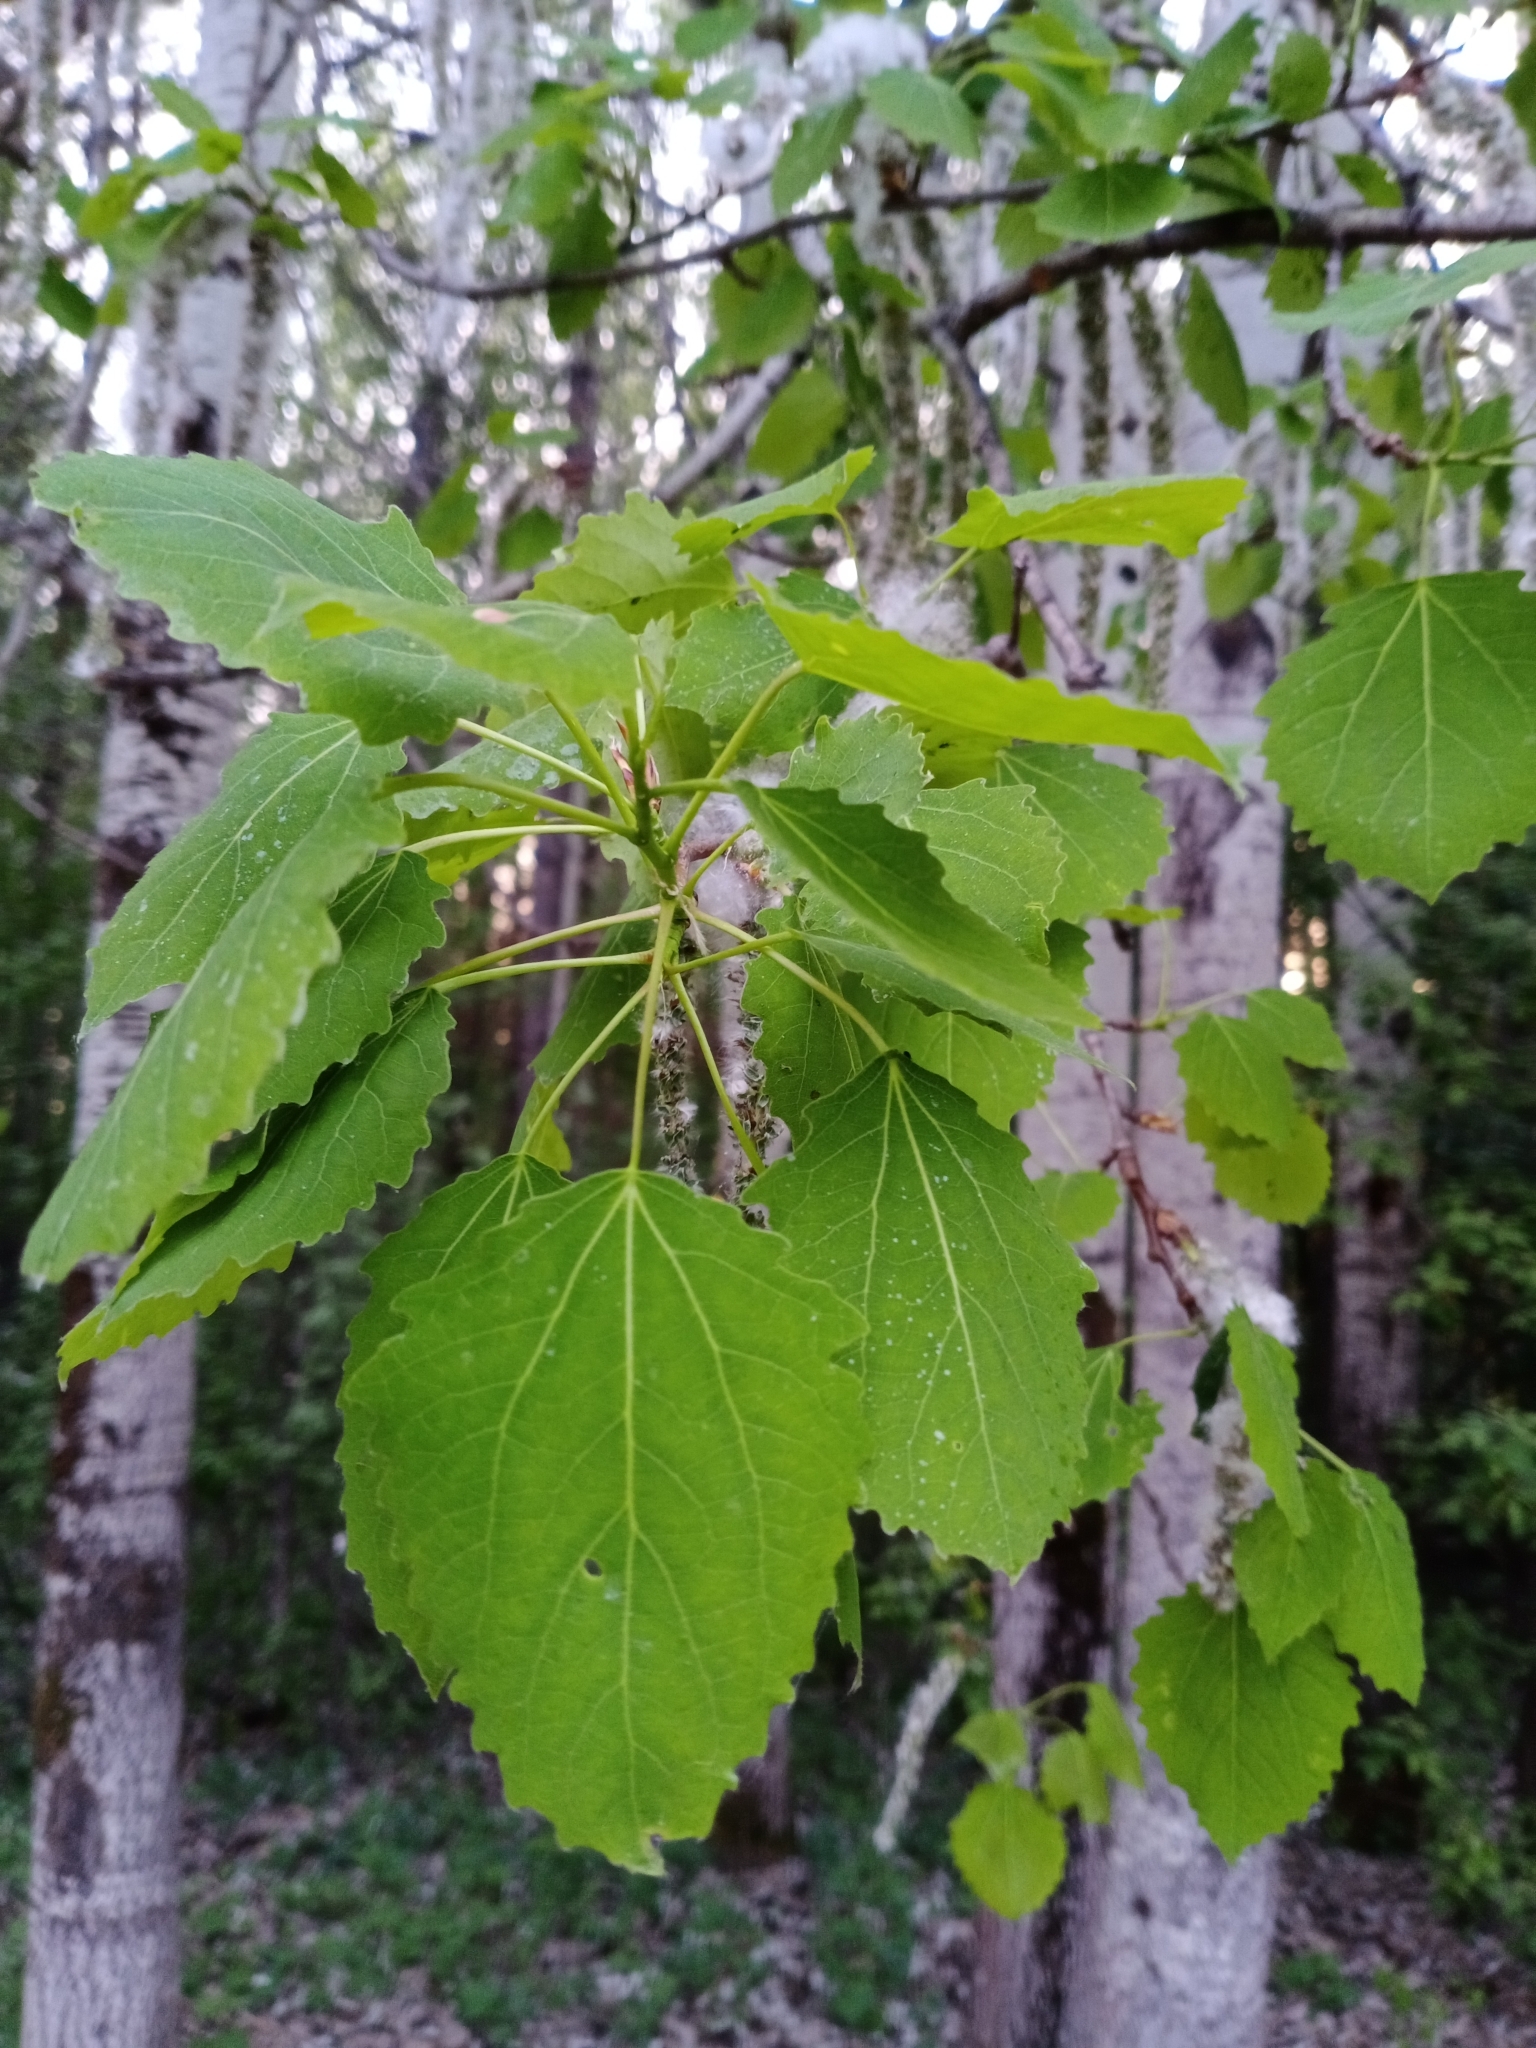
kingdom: Plantae
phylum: Tracheophyta
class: Magnoliopsida
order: Malpighiales
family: Salicaceae
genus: Populus
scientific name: Populus tremula
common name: European aspen
